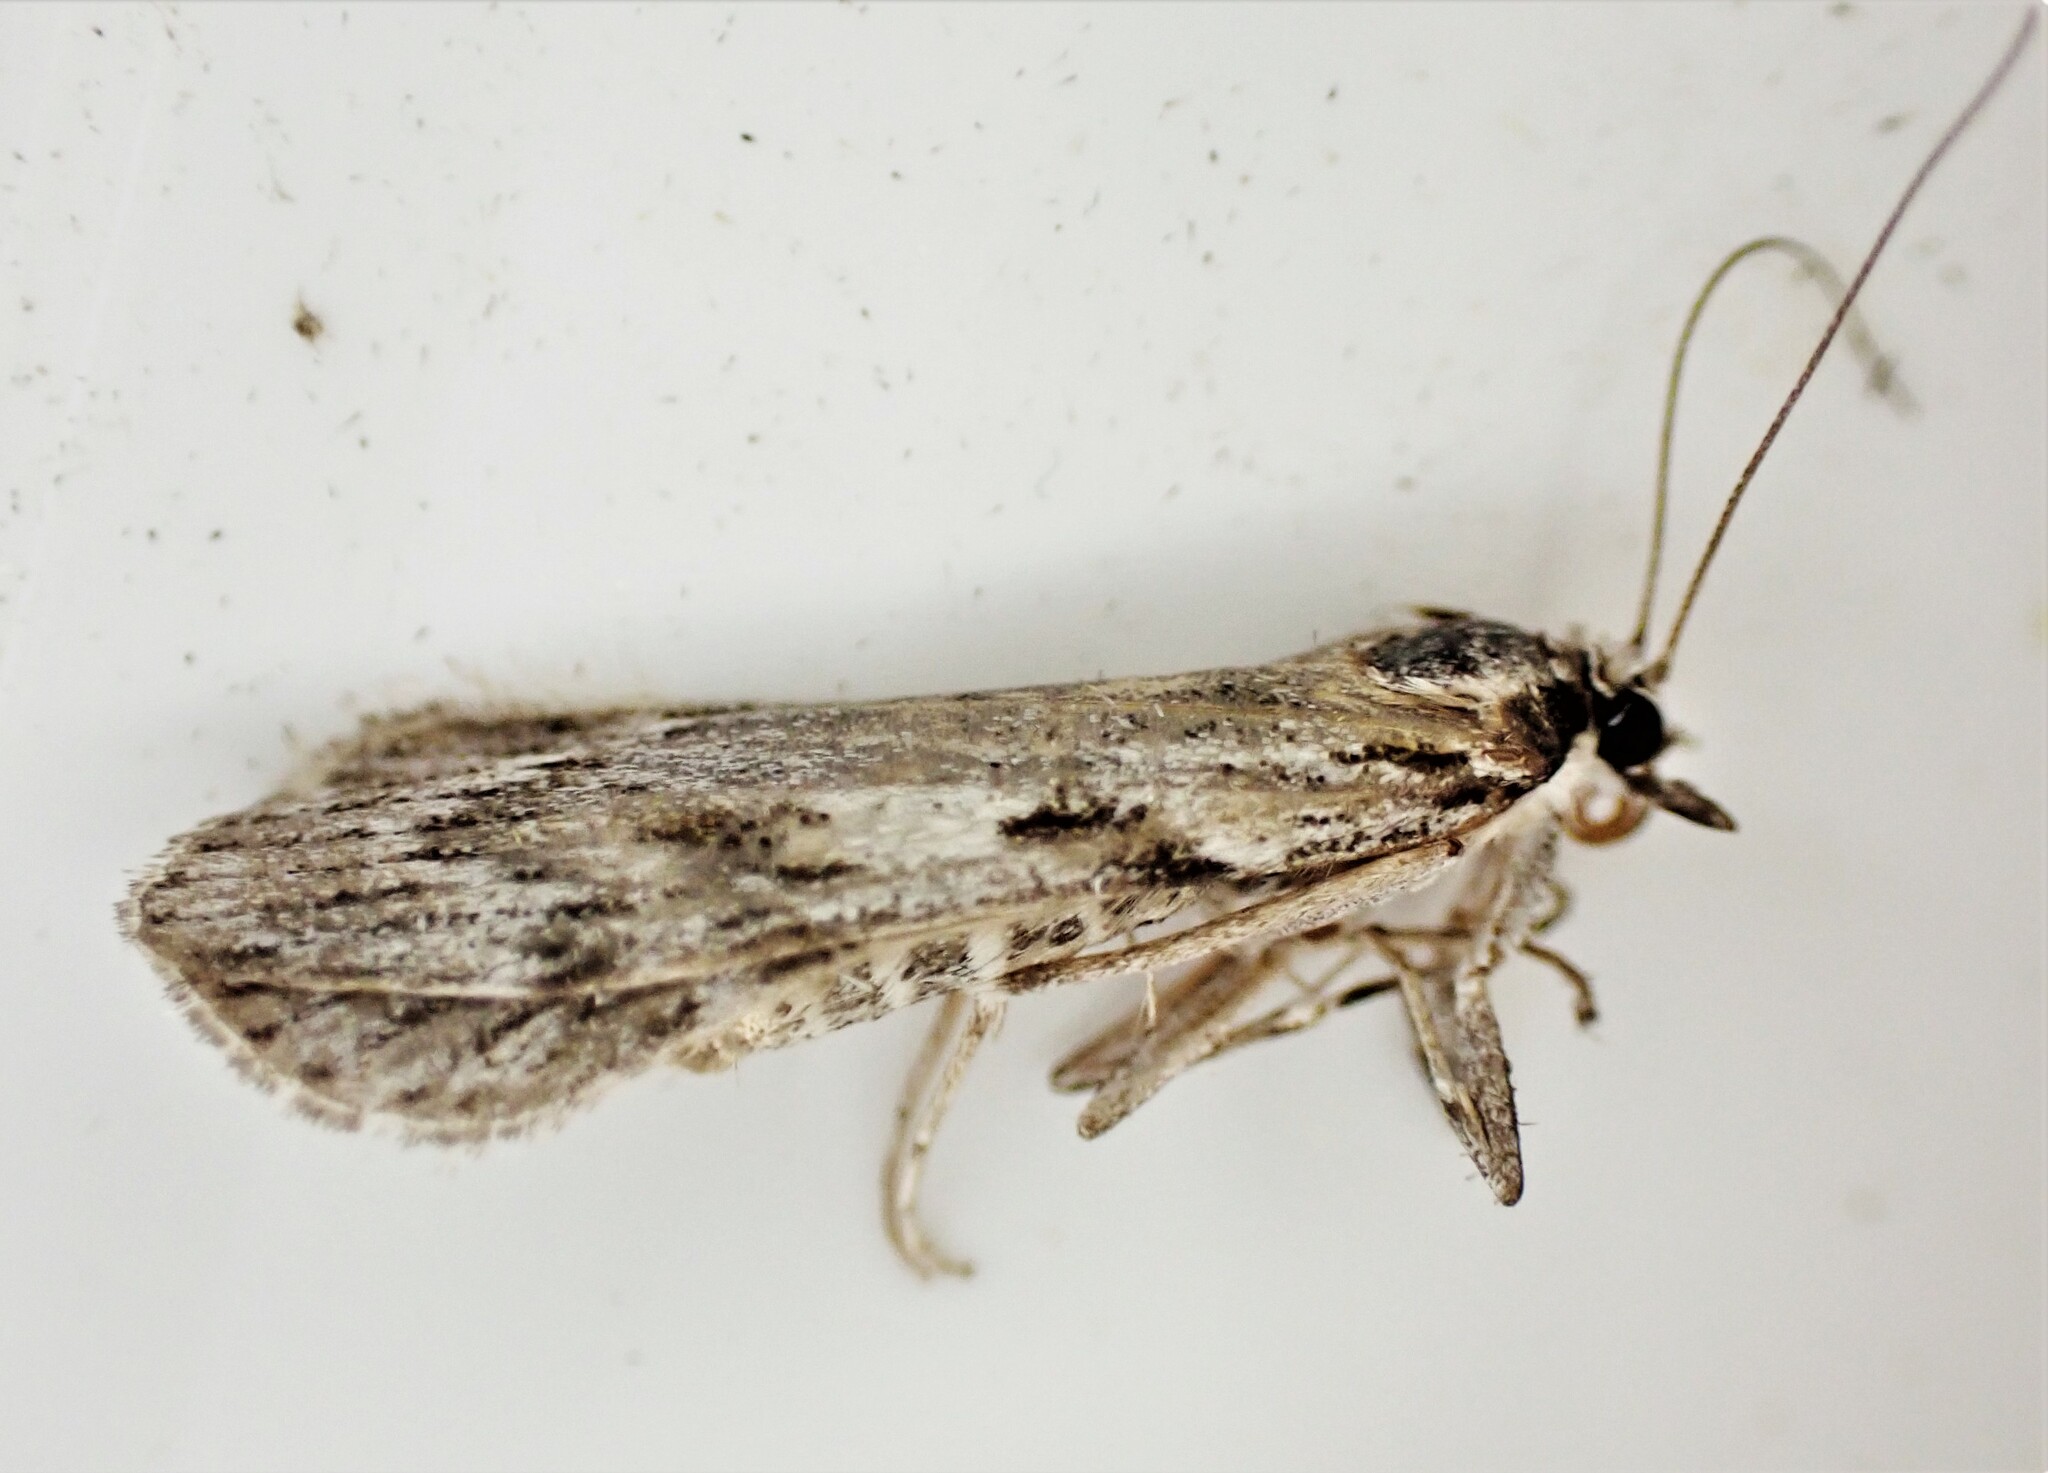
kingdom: Animalia
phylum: Arthropoda
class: Insecta
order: Lepidoptera
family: Crambidae
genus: Scoparia
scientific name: Scoparia halopis
